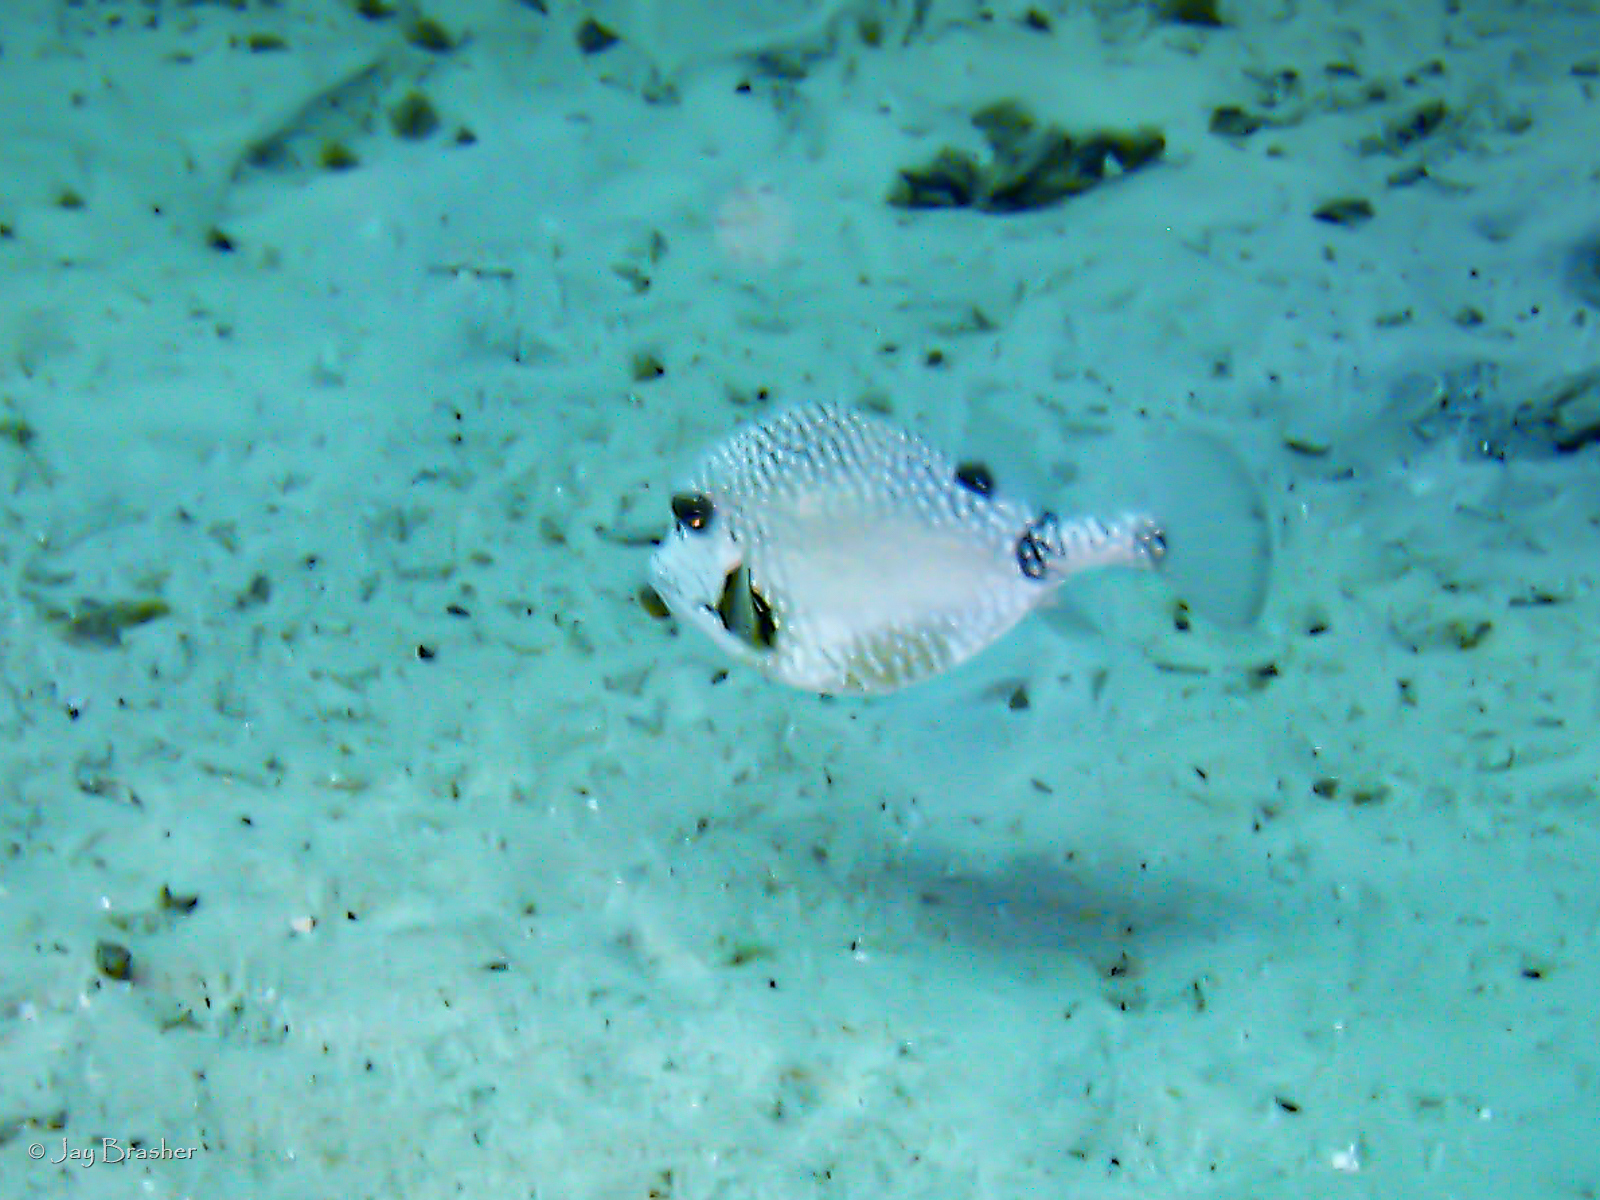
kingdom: Animalia
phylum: Chordata
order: Tetraodontiformes
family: Ostraciidae
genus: Lactophrys
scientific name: Lactophrys triqueter
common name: Smooth trunkfish
